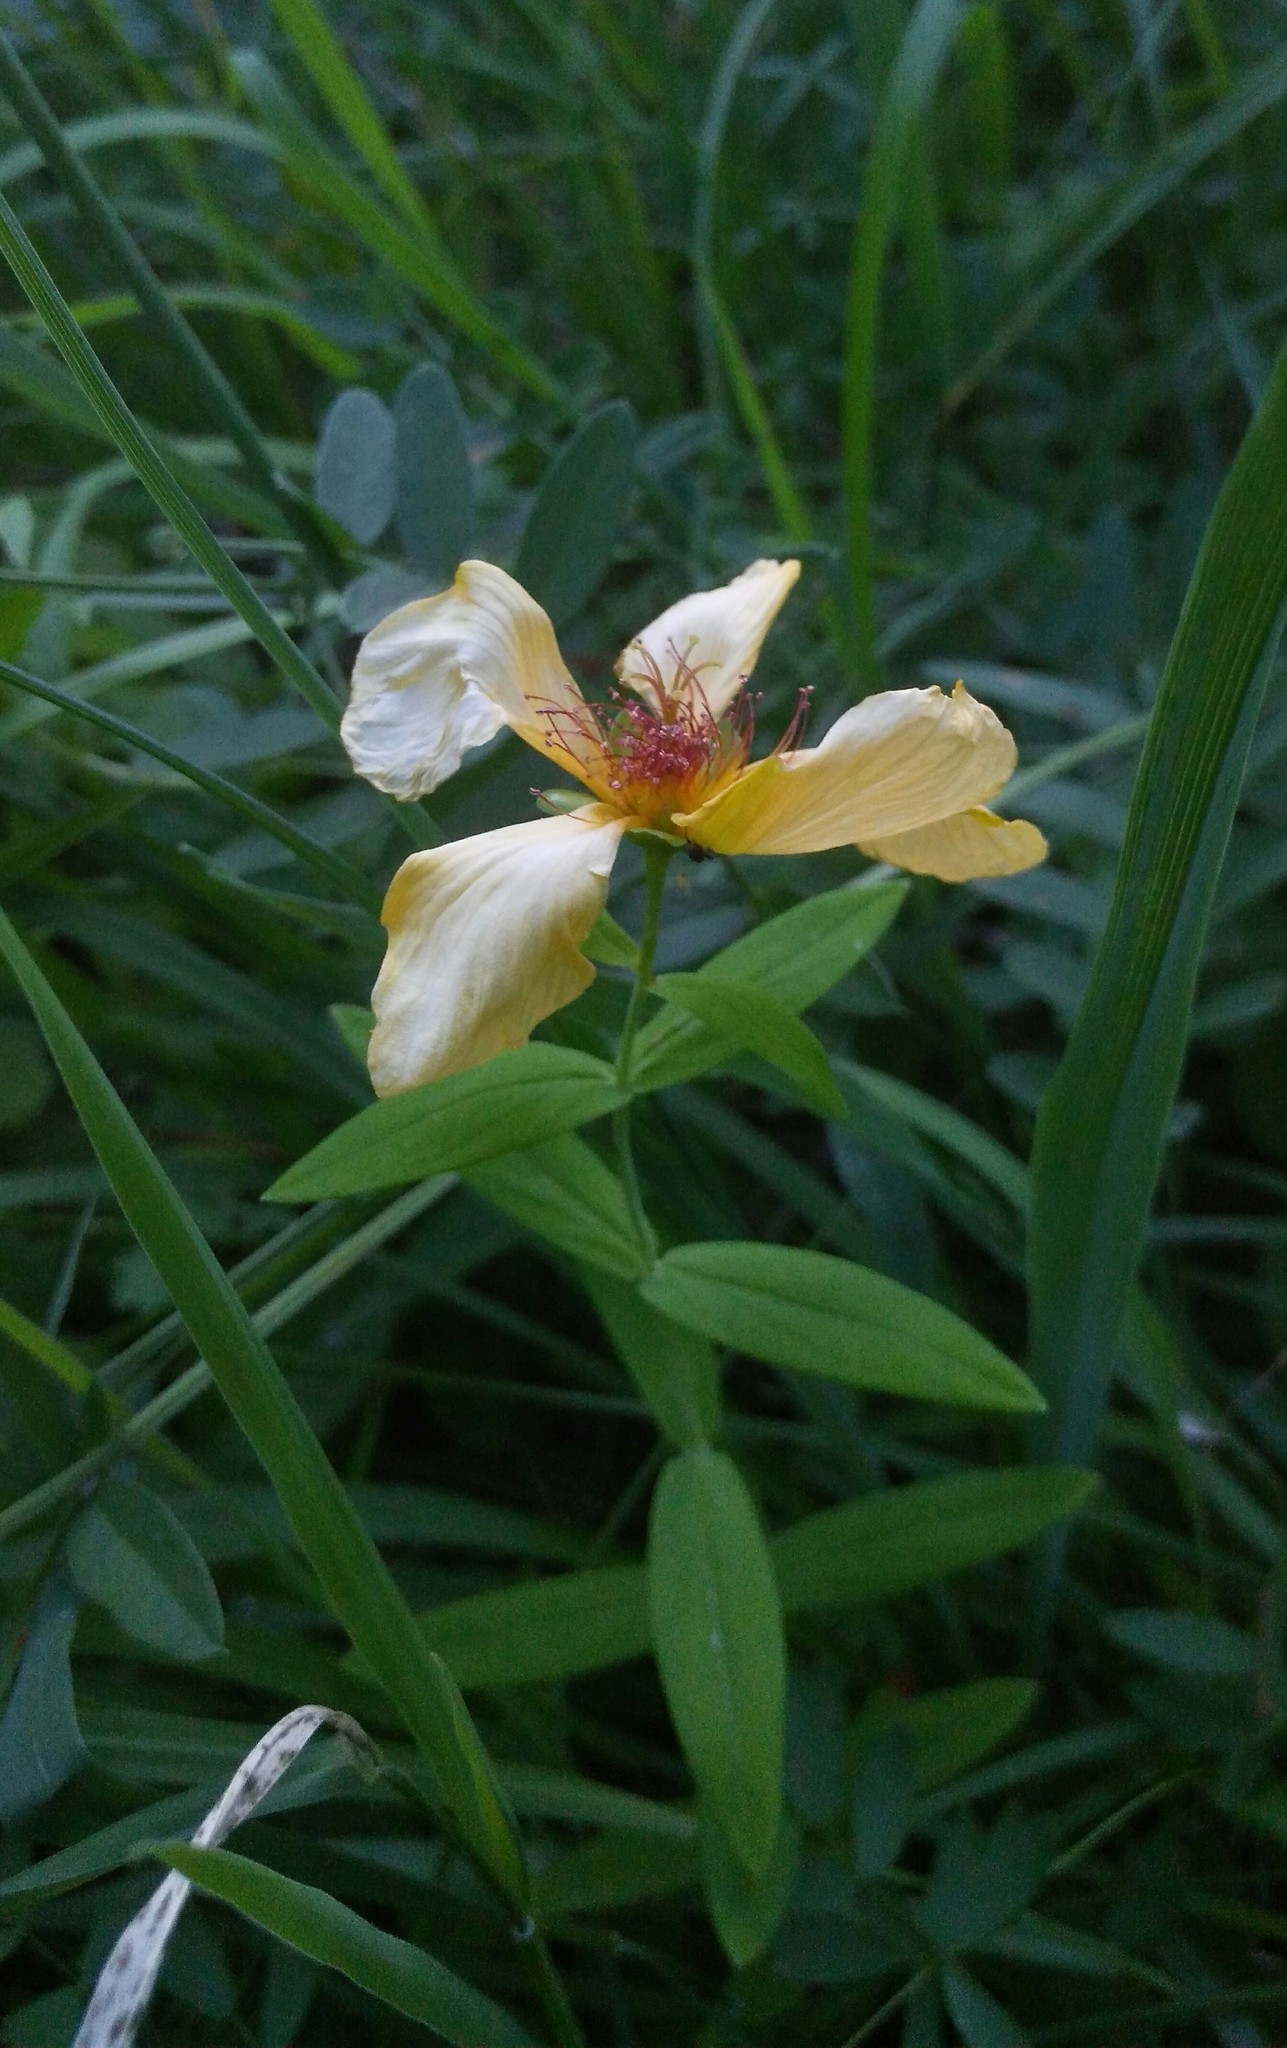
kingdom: Plantae
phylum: Tracheophyta
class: Magnoliopsida
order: Malpighiales
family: Hypericaceae
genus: Hypericum
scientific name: Hypericum ascyron
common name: Giant st. john's-wort
